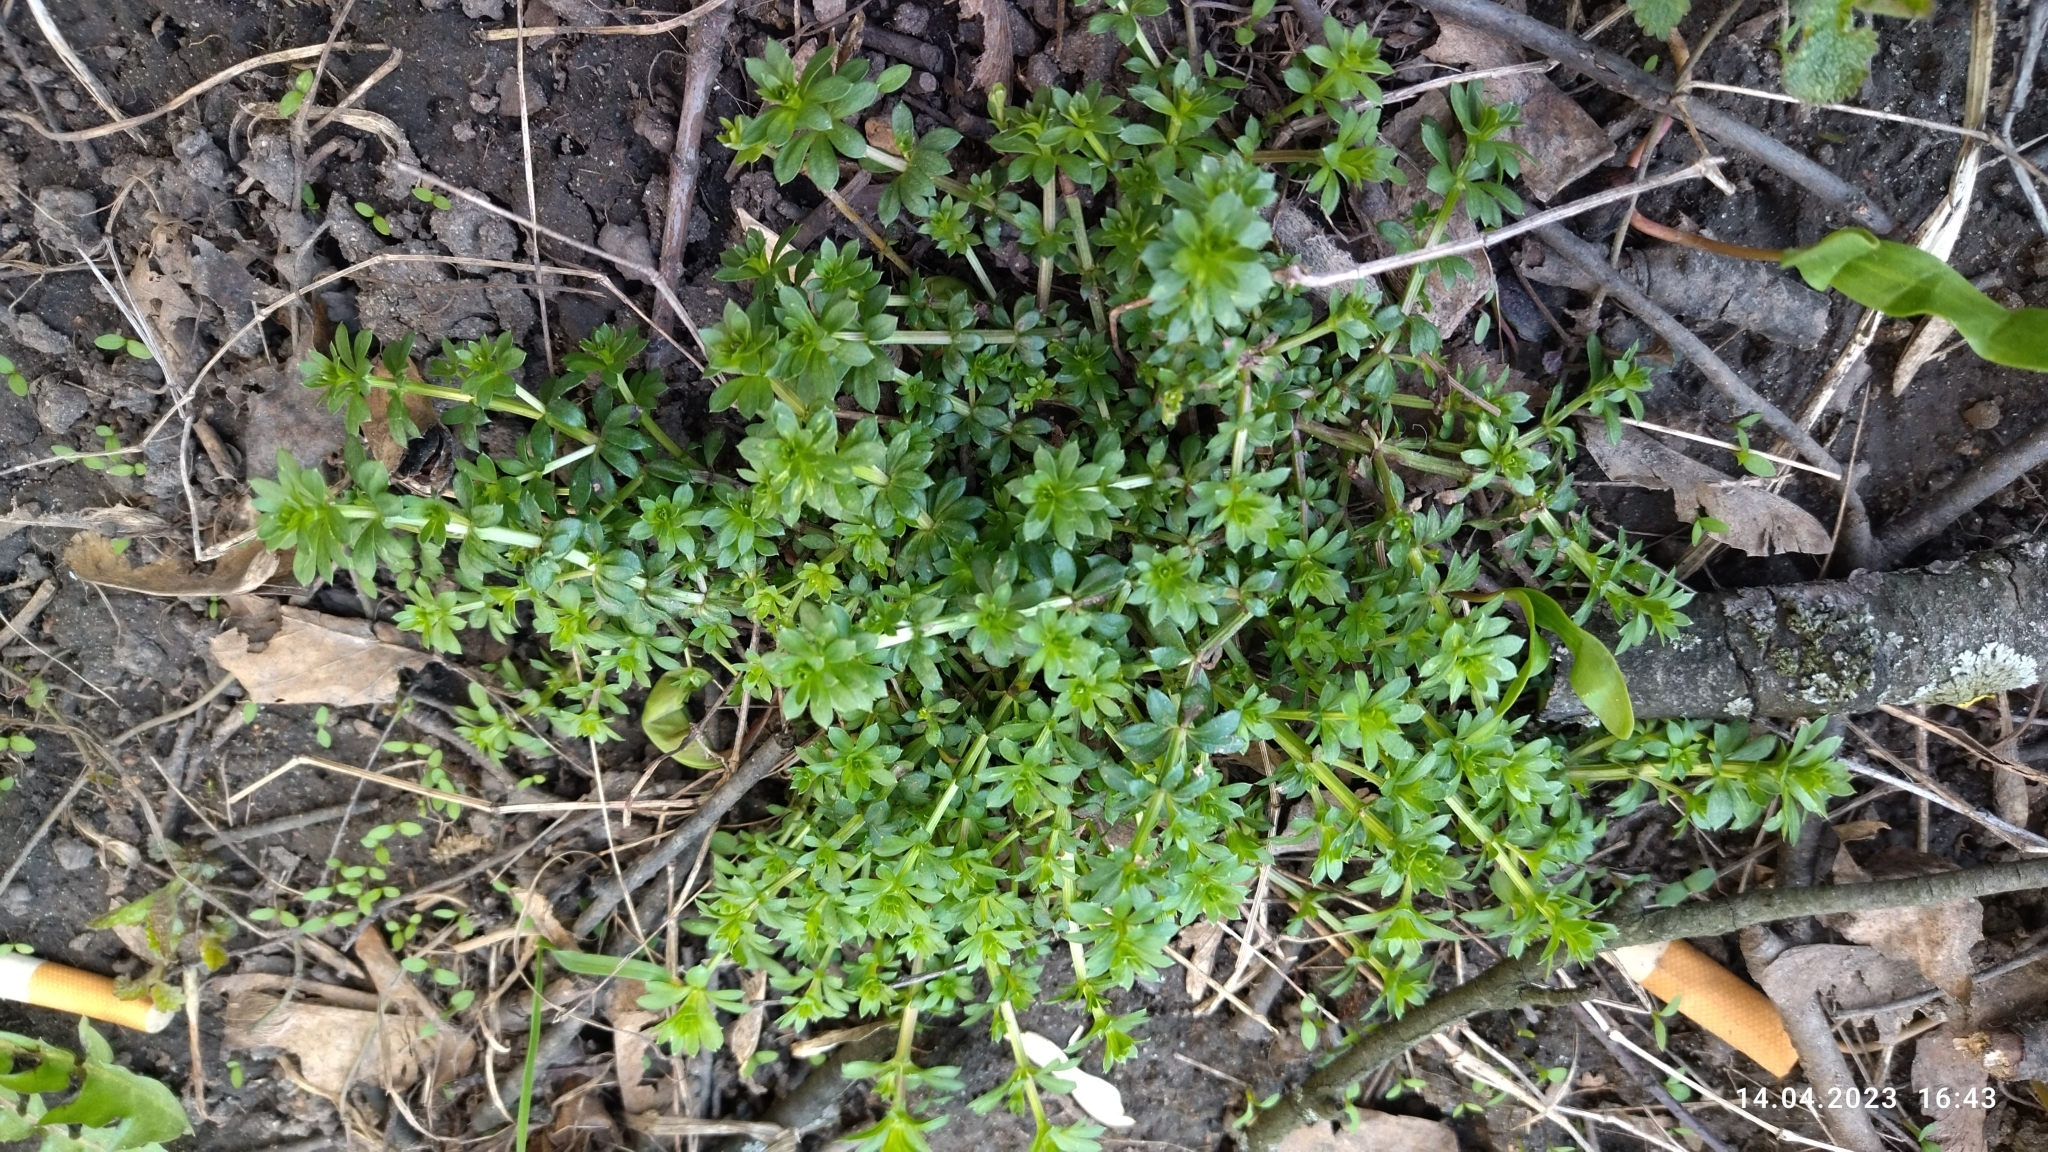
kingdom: Plantae
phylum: Tracheophyta
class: Magnoliopsida
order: Gentianales
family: Rubiaceae
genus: Galium
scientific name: Galium mollugo
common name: Hedge bedstraw
